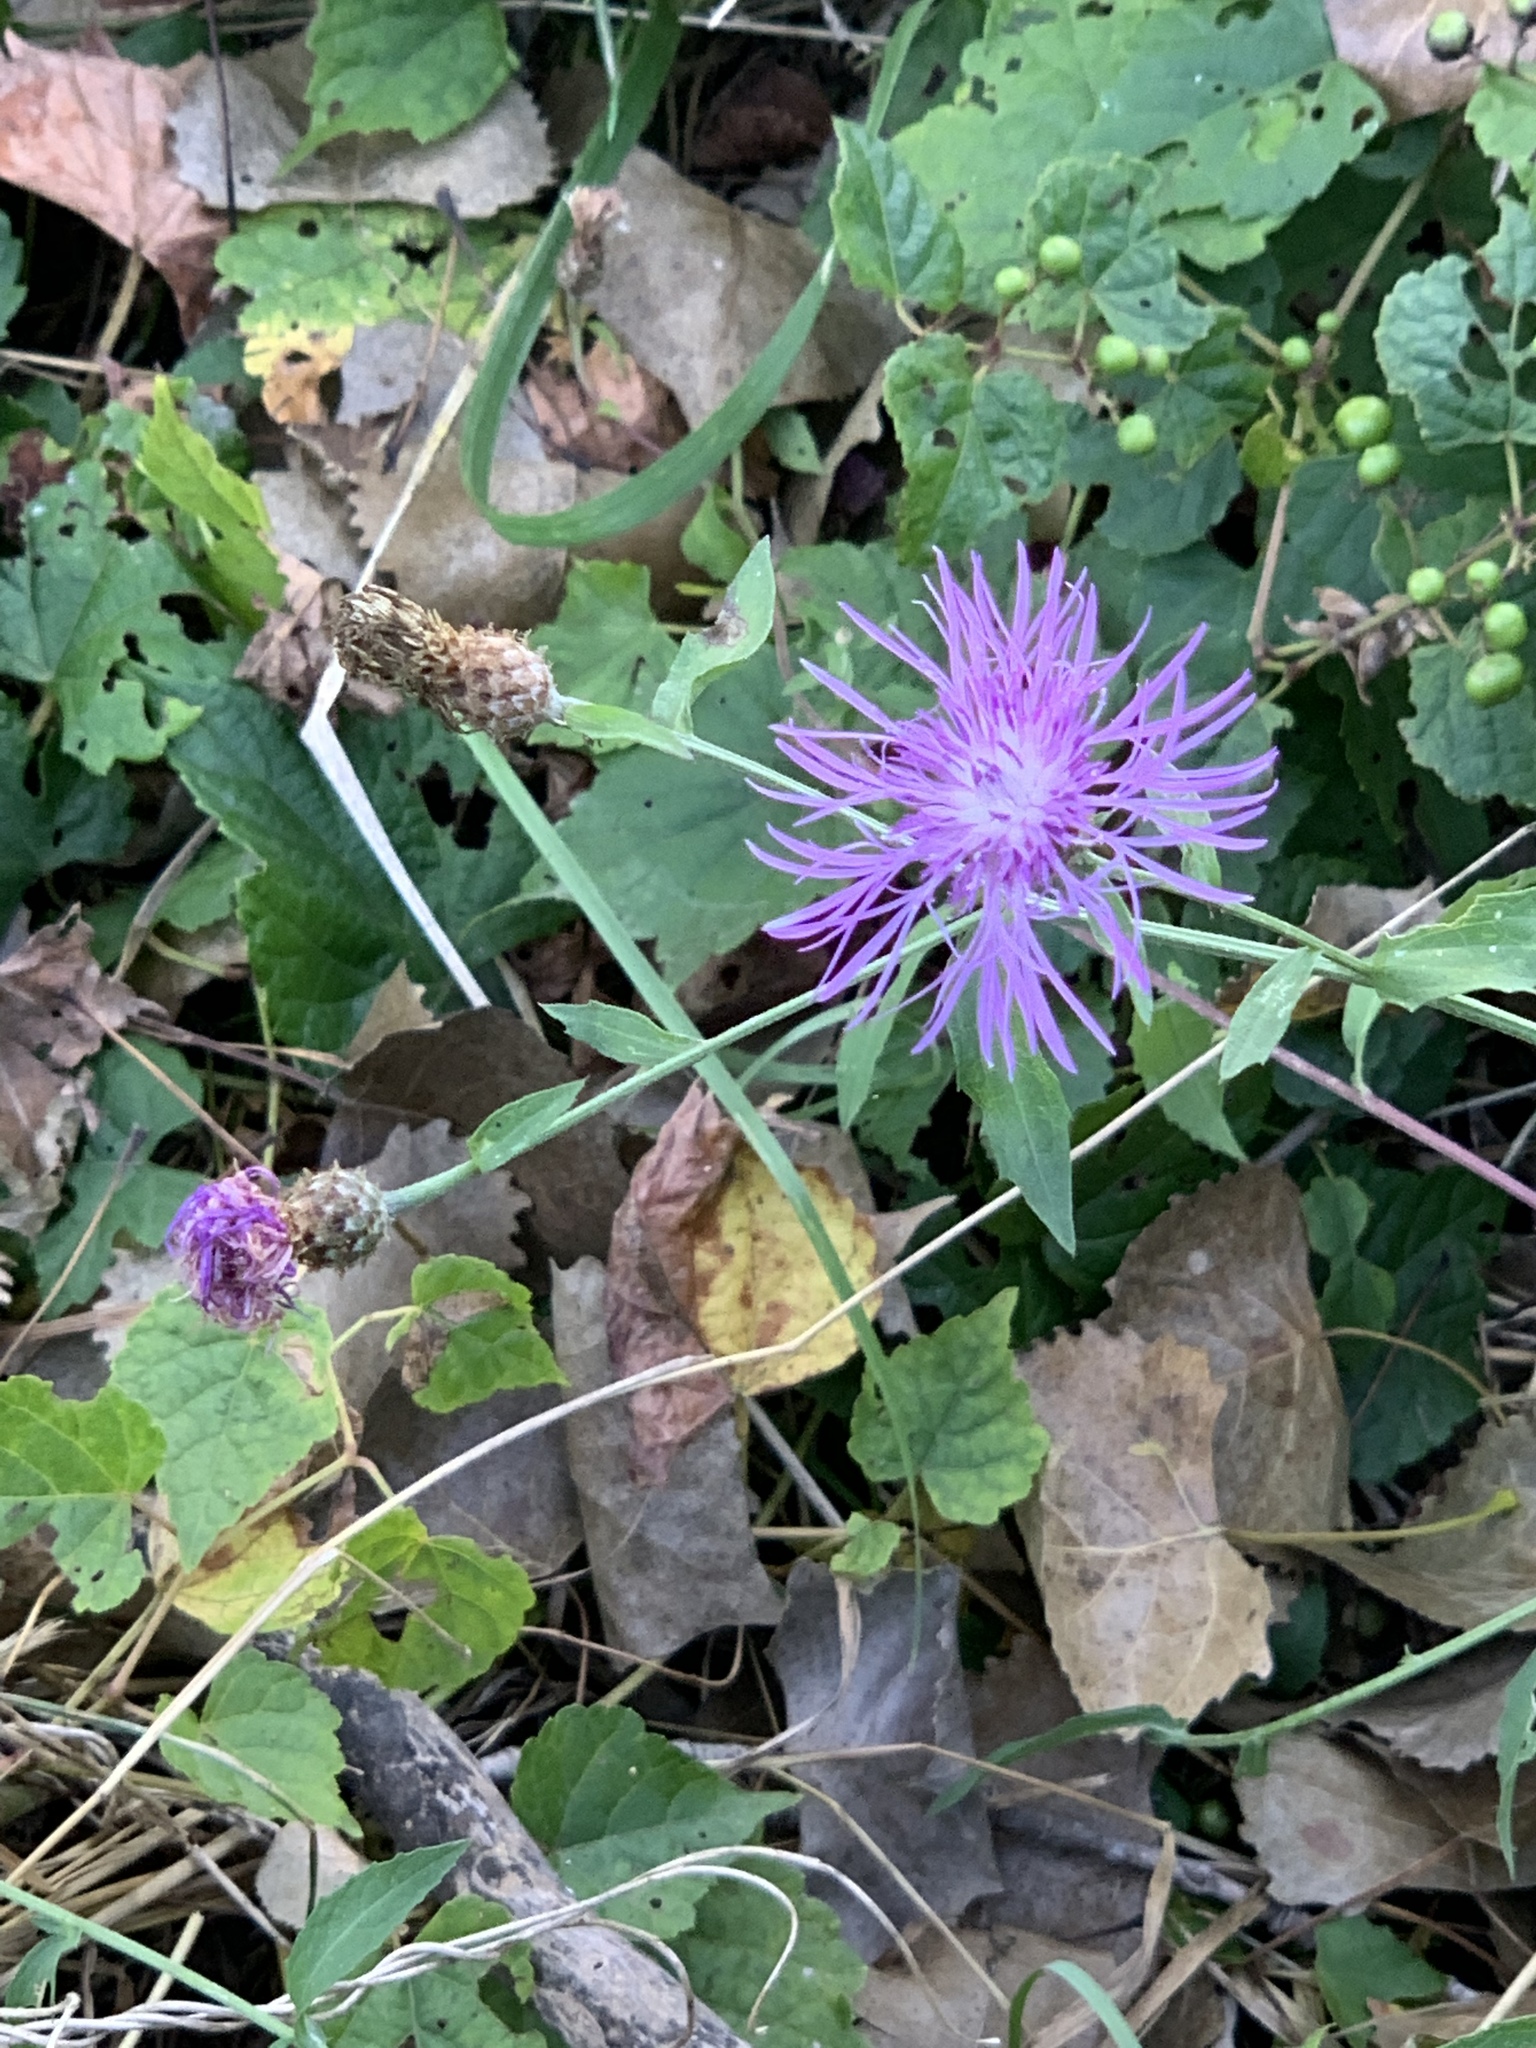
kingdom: Plantae
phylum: Tracheophyta
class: Magnoliopsida
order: Asterales
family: Asteraceae
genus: Centaurea
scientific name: Centaurea nigrescens
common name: Tyrol knapweed
